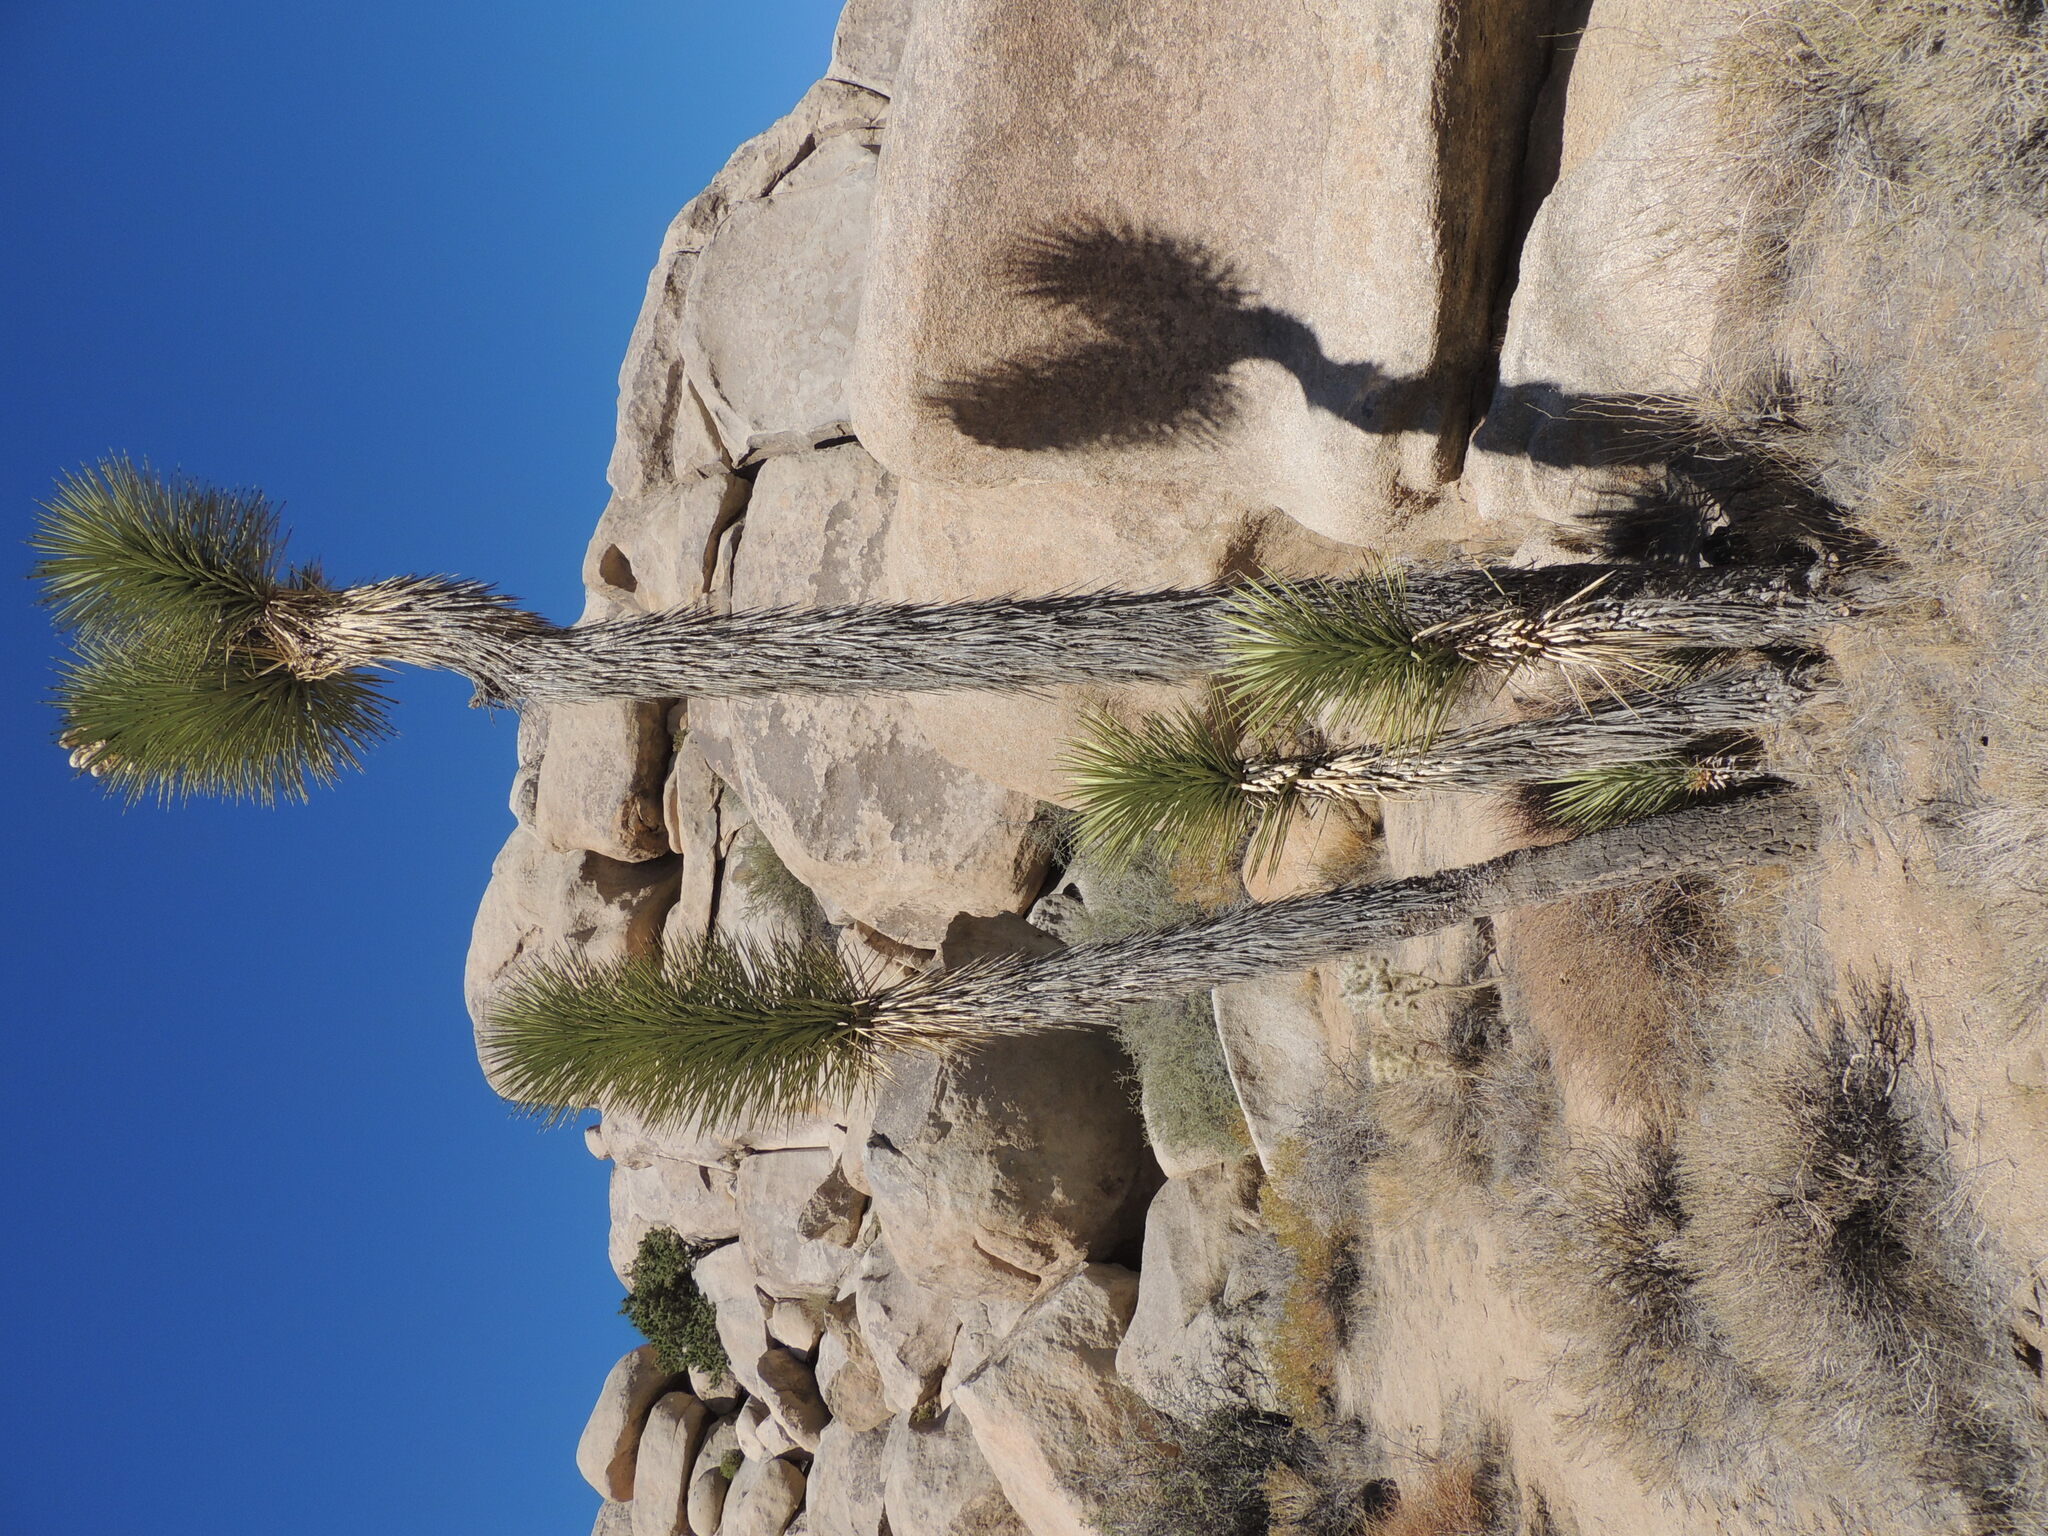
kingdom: Plantae
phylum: Tracheophyta
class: Liliopsida
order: Asparagales
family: Asparagaceae
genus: Yucca
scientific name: Yucca brevifolia
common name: Joshua tree
